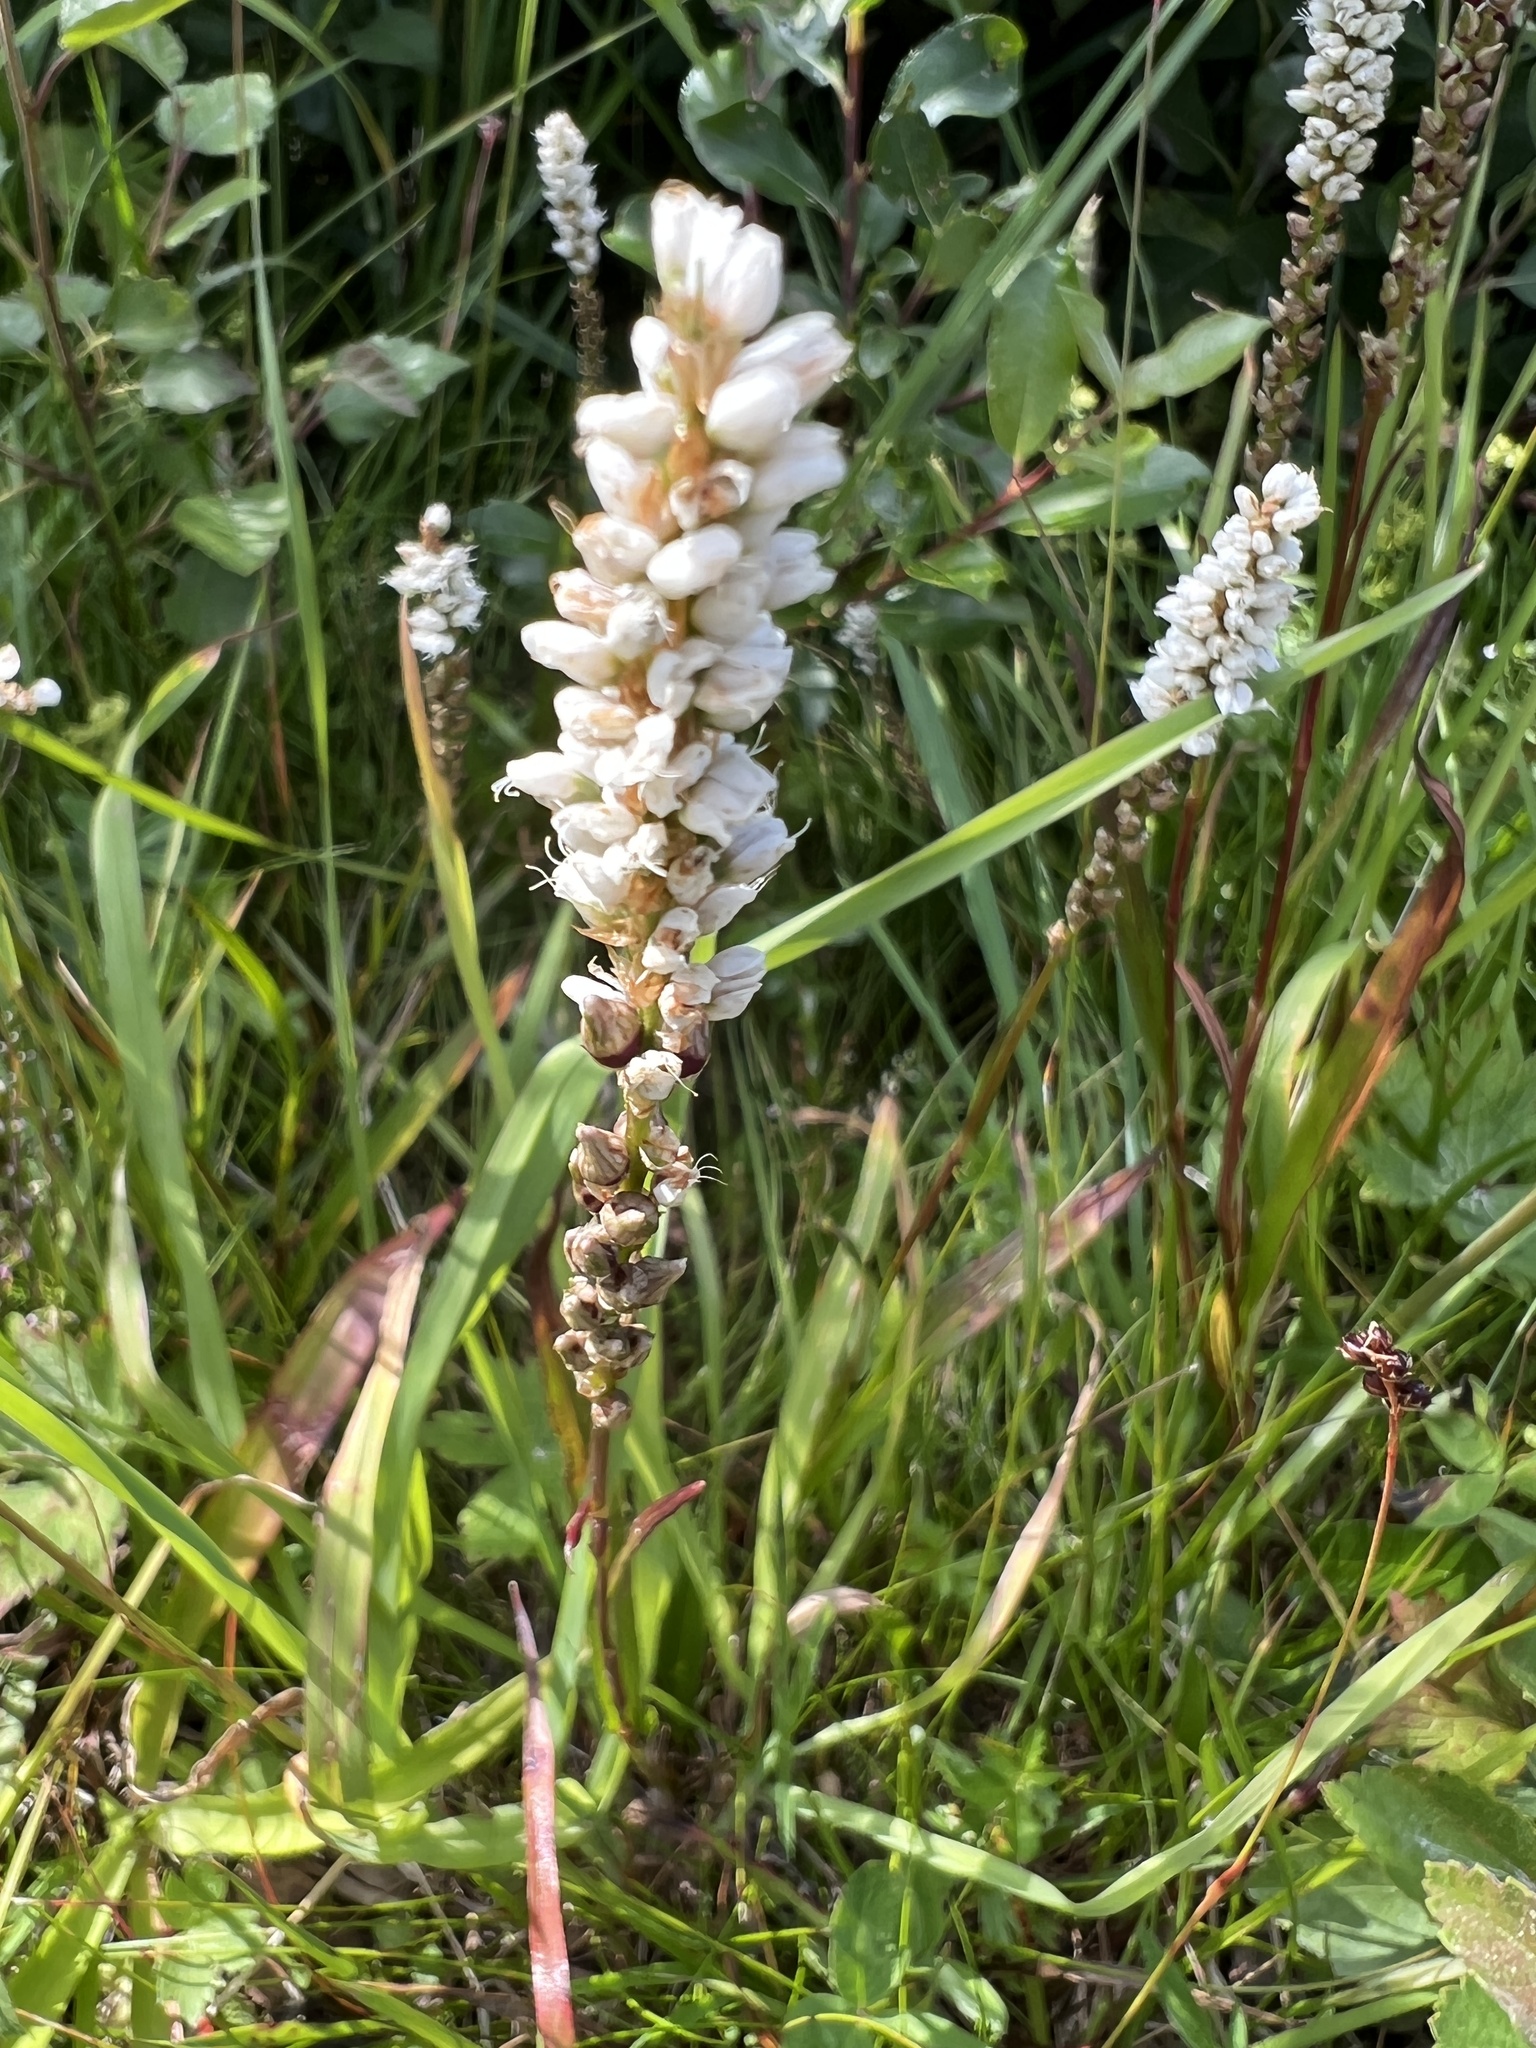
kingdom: Plantae
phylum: Tracheophyta
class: Magnoliopsida
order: Caryophyllales
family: Polygonaceae
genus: Bistorta
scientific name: Bistorta vivipara
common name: Alpine bistort
